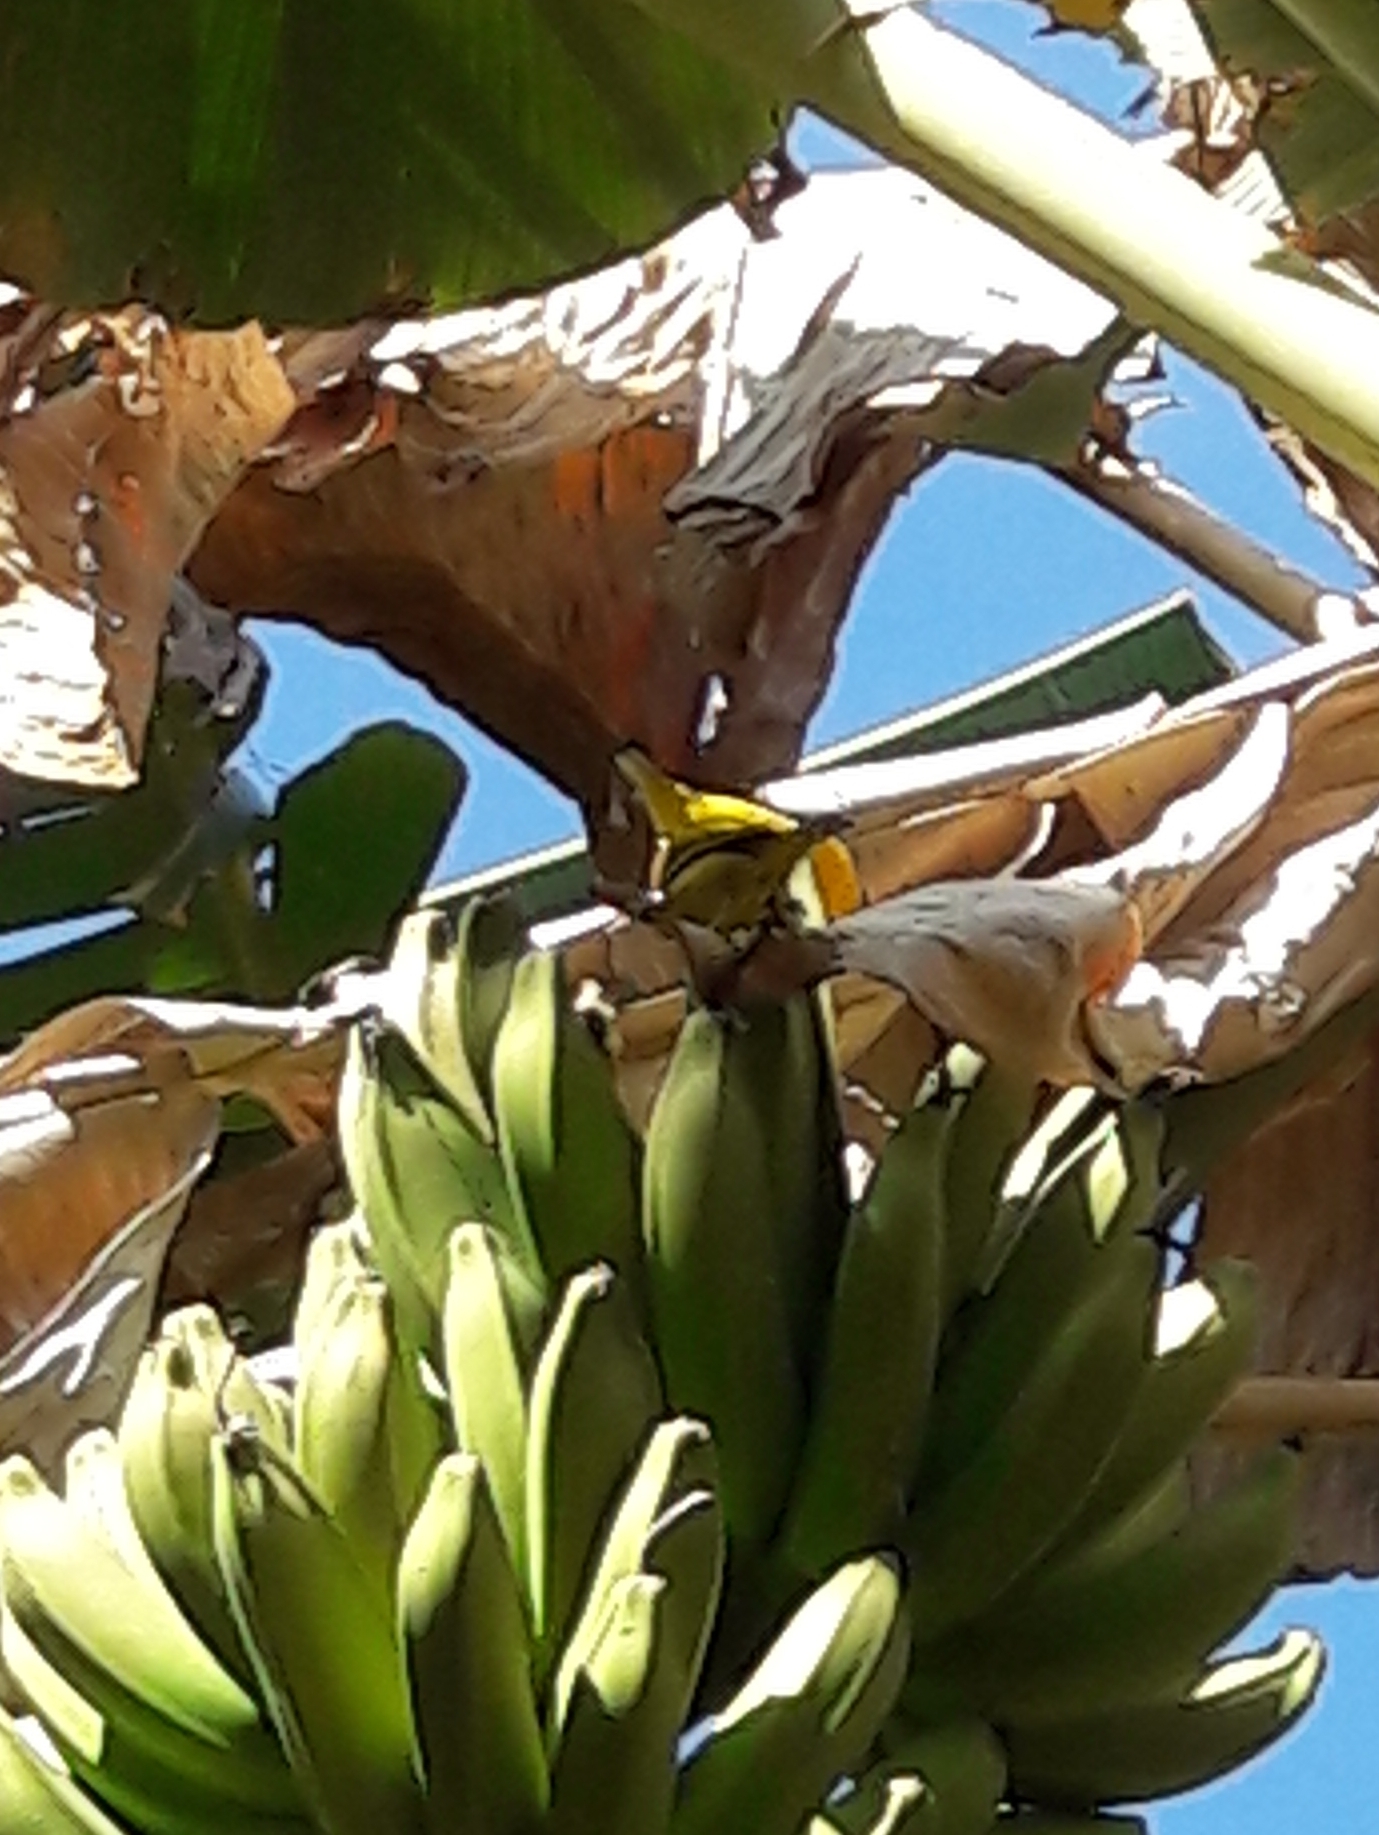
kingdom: Animalia
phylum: Chordata
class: Aves
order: Passeriformes
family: Fringillidae
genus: Euphonia
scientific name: Euphonia violacea
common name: Violaceous euphonia
